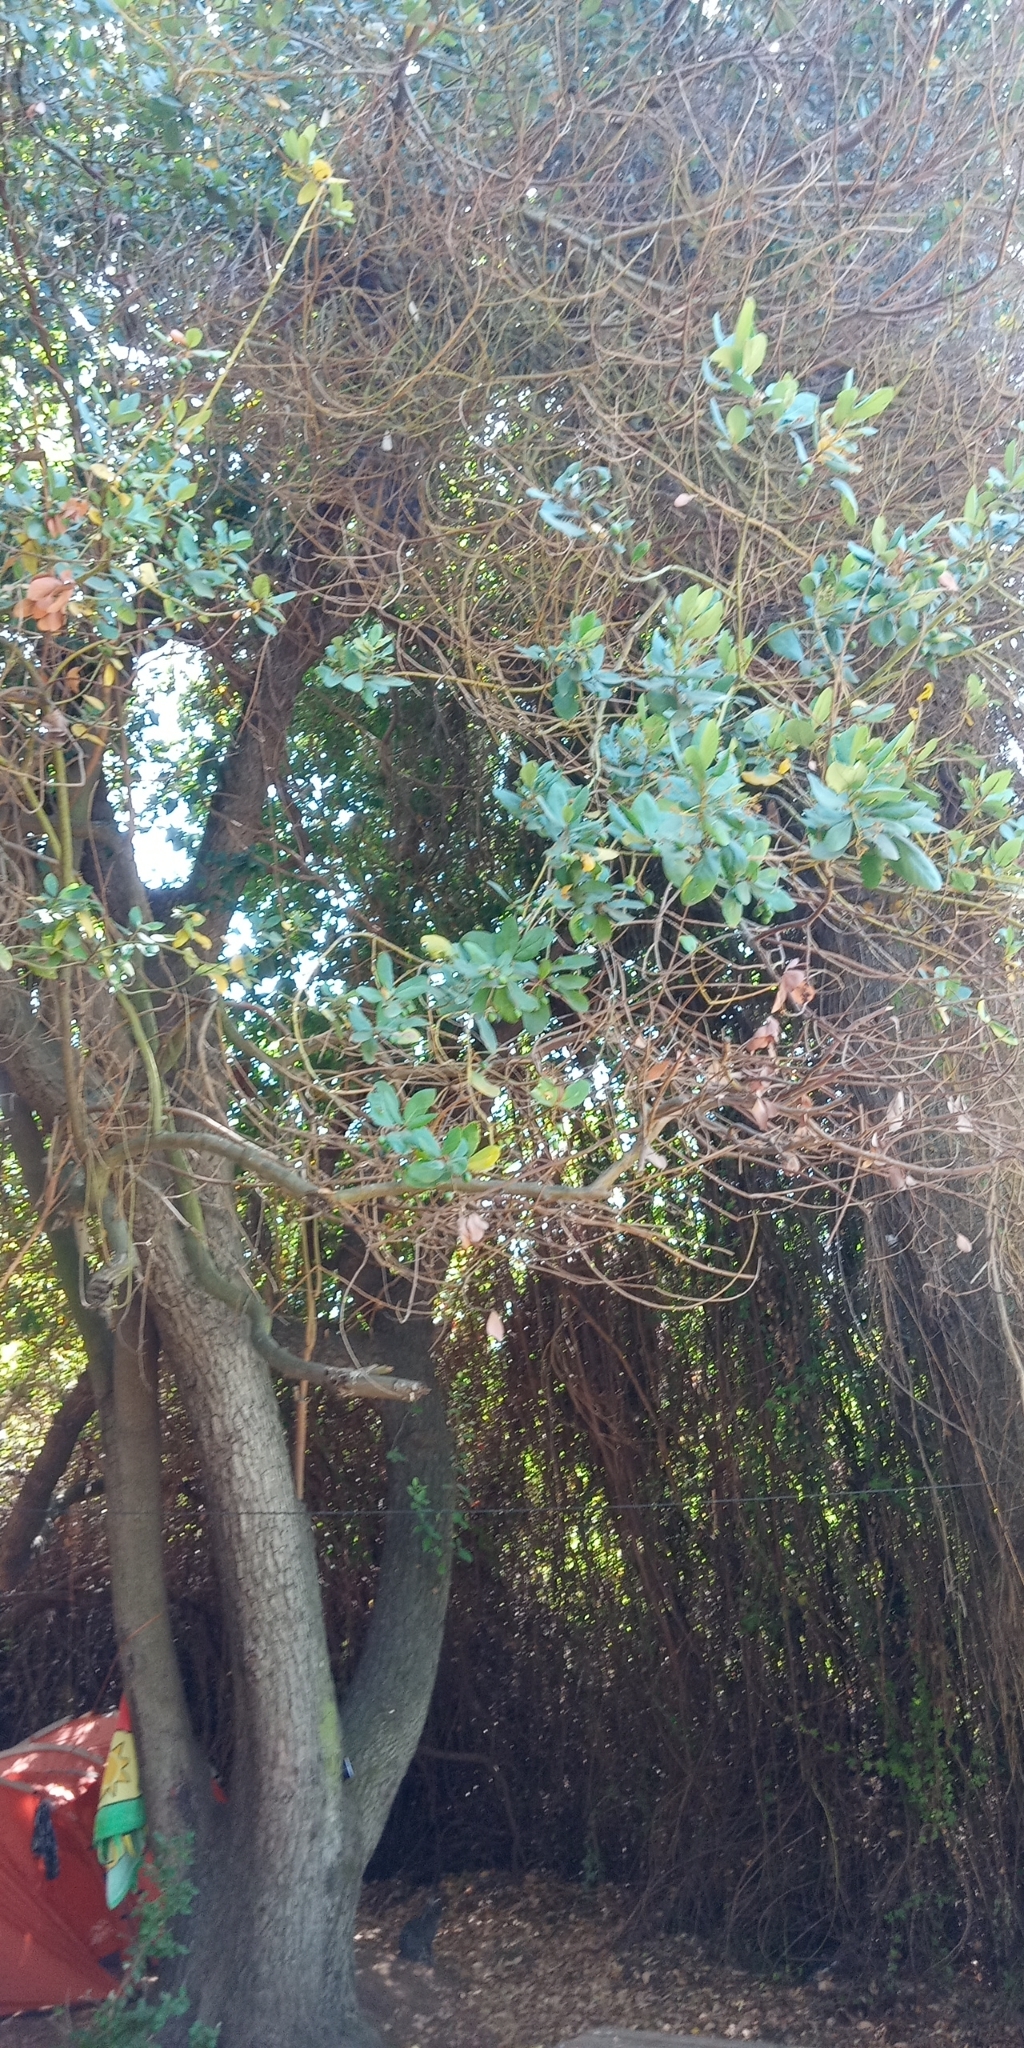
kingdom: Plantae
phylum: Tracheophyta
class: Magnoliopsida
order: Laurales
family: Lauraceae
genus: Persea
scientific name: Persea lingue
